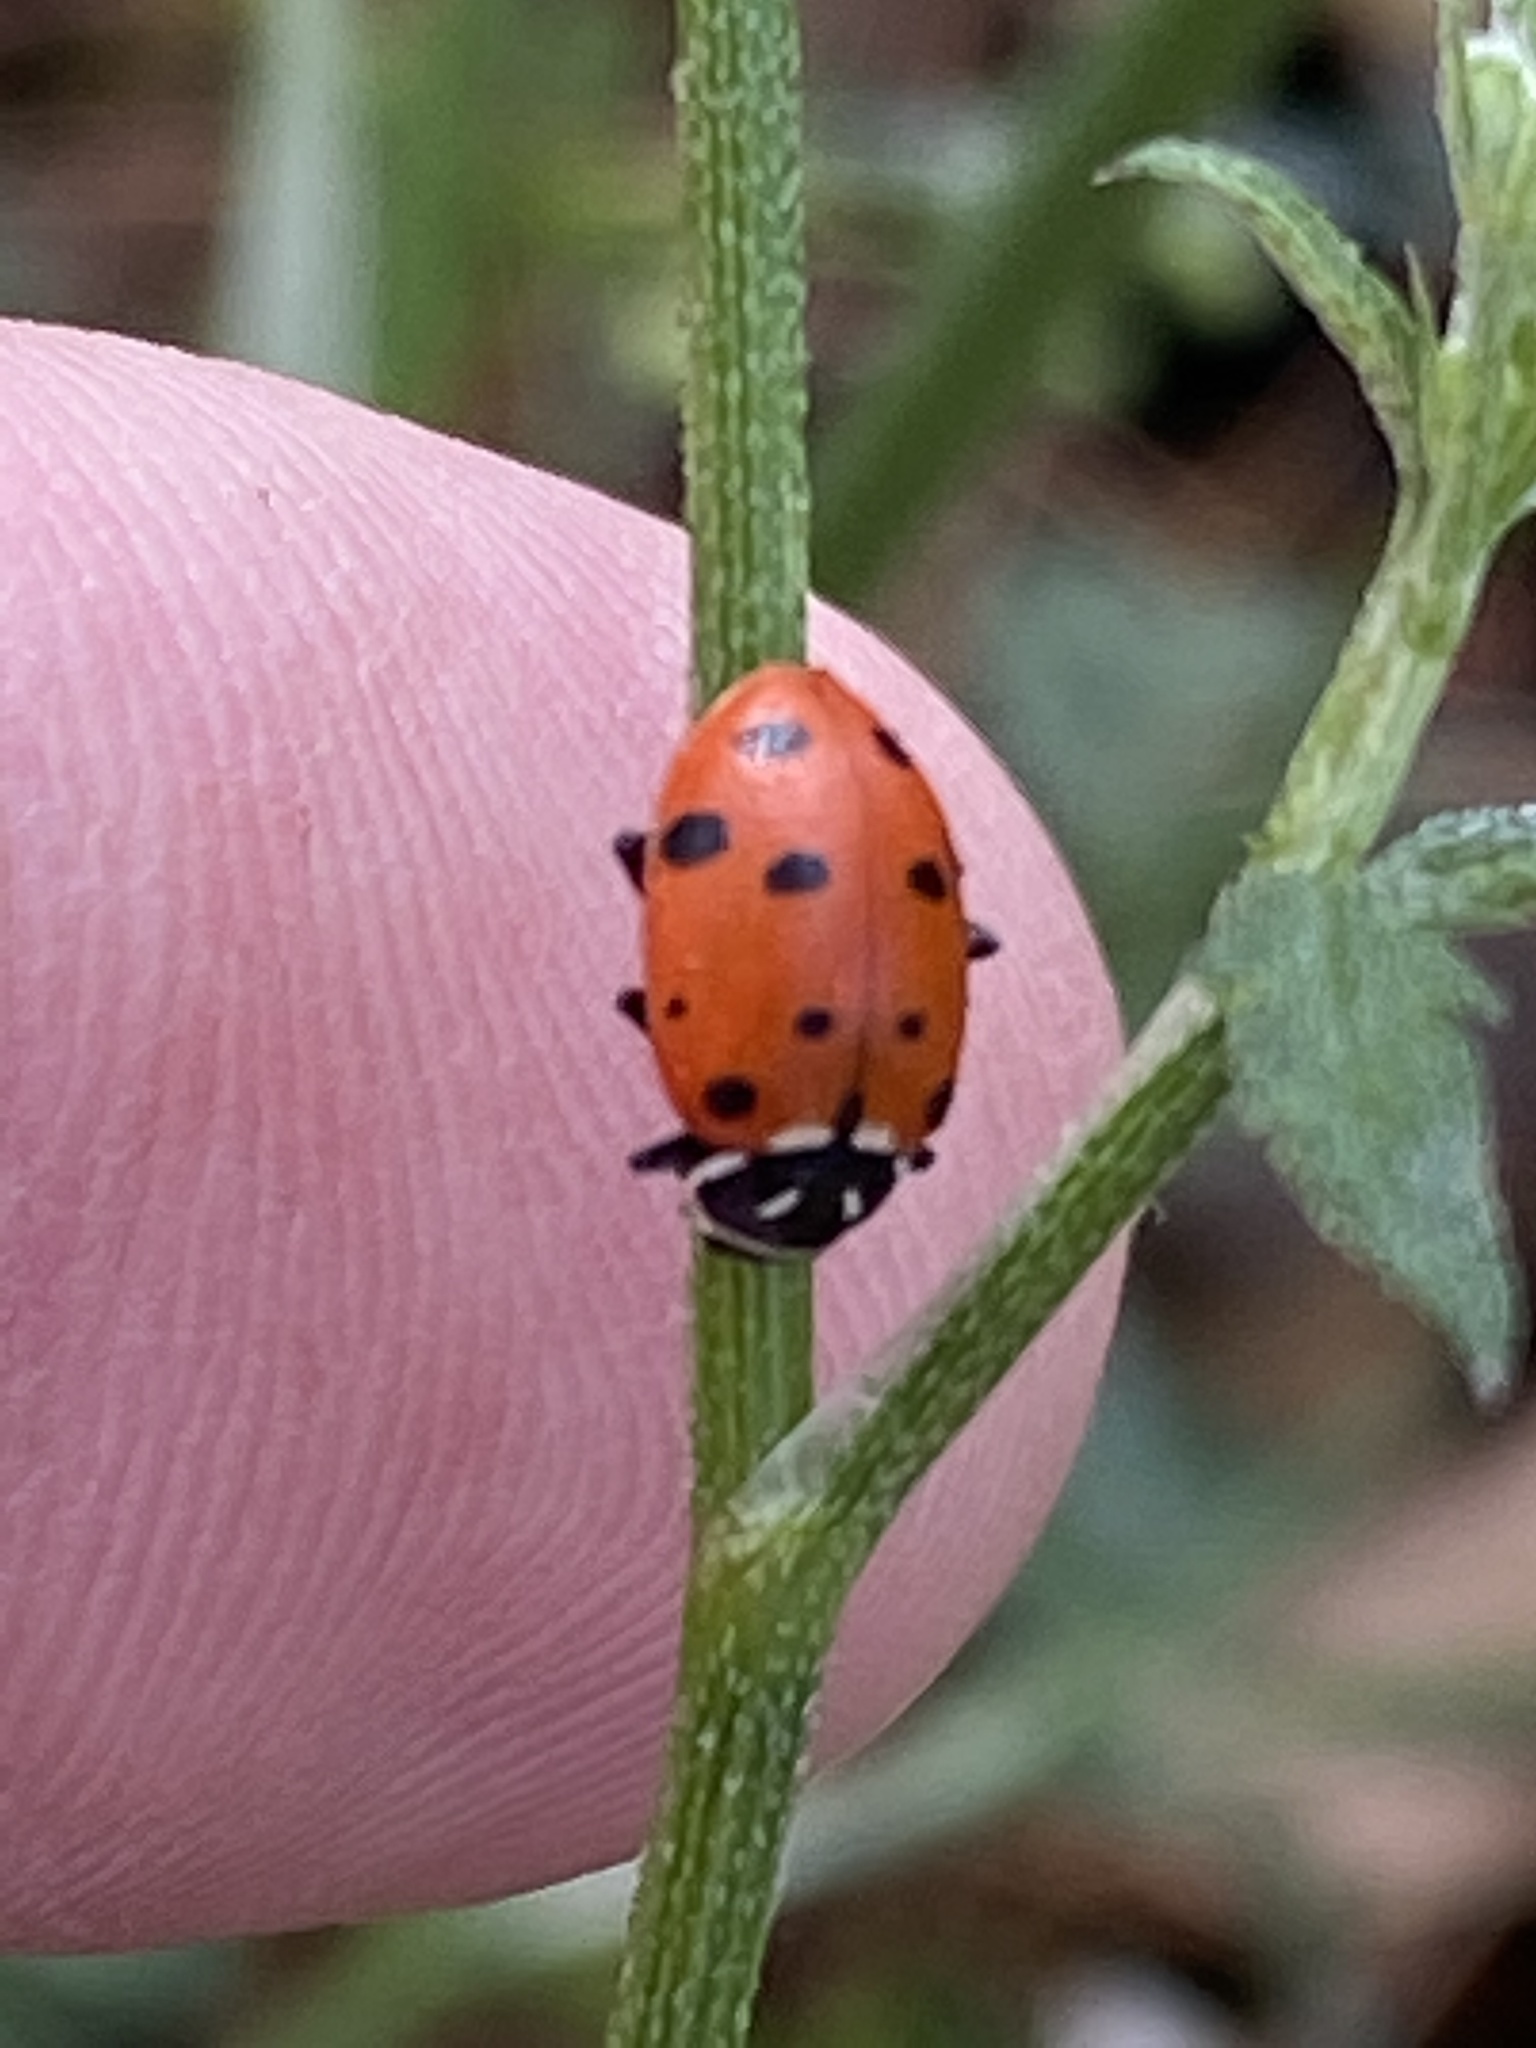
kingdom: Animalia
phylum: Arthropoda
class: Insecta
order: Coleoptera
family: Coccinellidae
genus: Hippodamia
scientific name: Hippodamia convergens
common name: Convergent lady beetle
